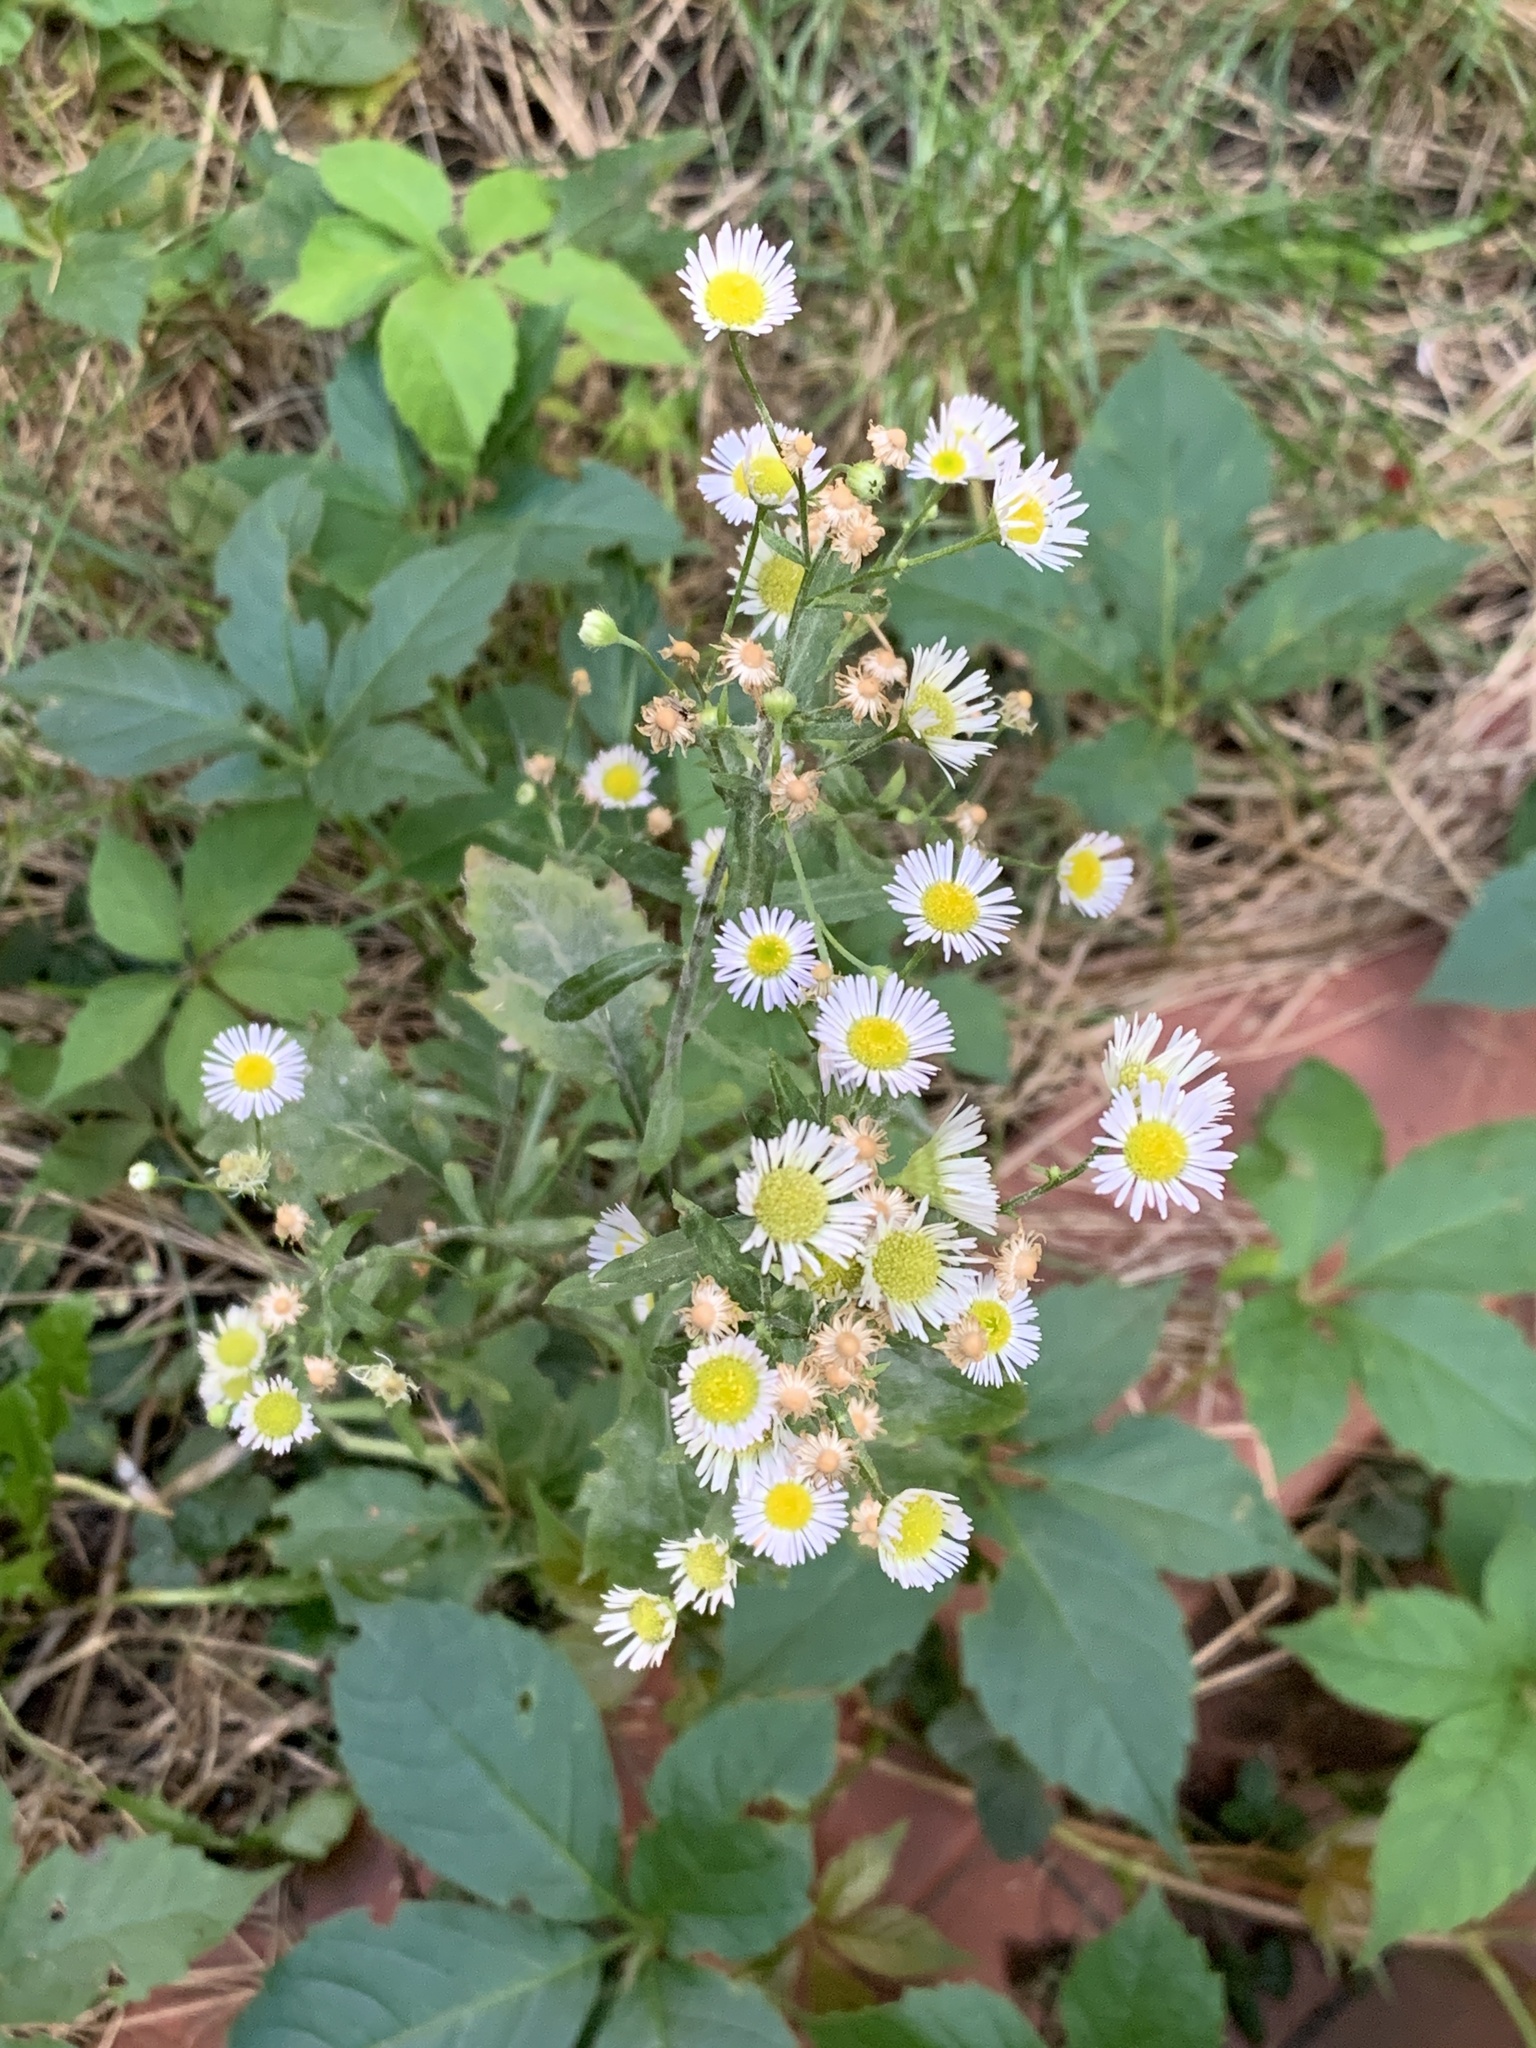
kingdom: Plantae
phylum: Tracheophyta
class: Magnoliopsida
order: Asterales
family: Asteraceae
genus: Erigeron
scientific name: Erigeron annuus
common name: Tall fleabane
